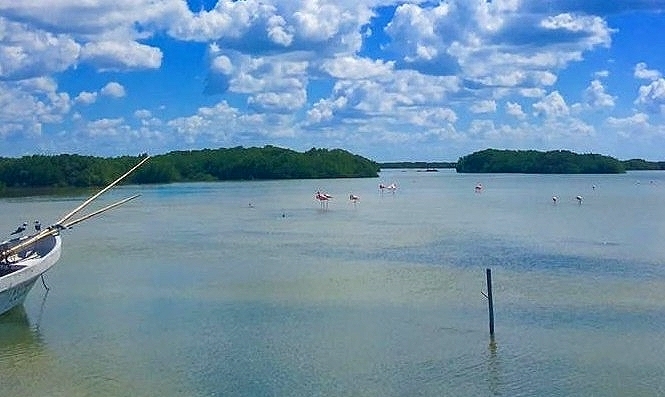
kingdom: Animalia
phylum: Chordata
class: Aves
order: Phoenicopteriformes
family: Phoenicopteridae
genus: Phoenicopterus
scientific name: Phoenicopterus ruber
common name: American flamingo
